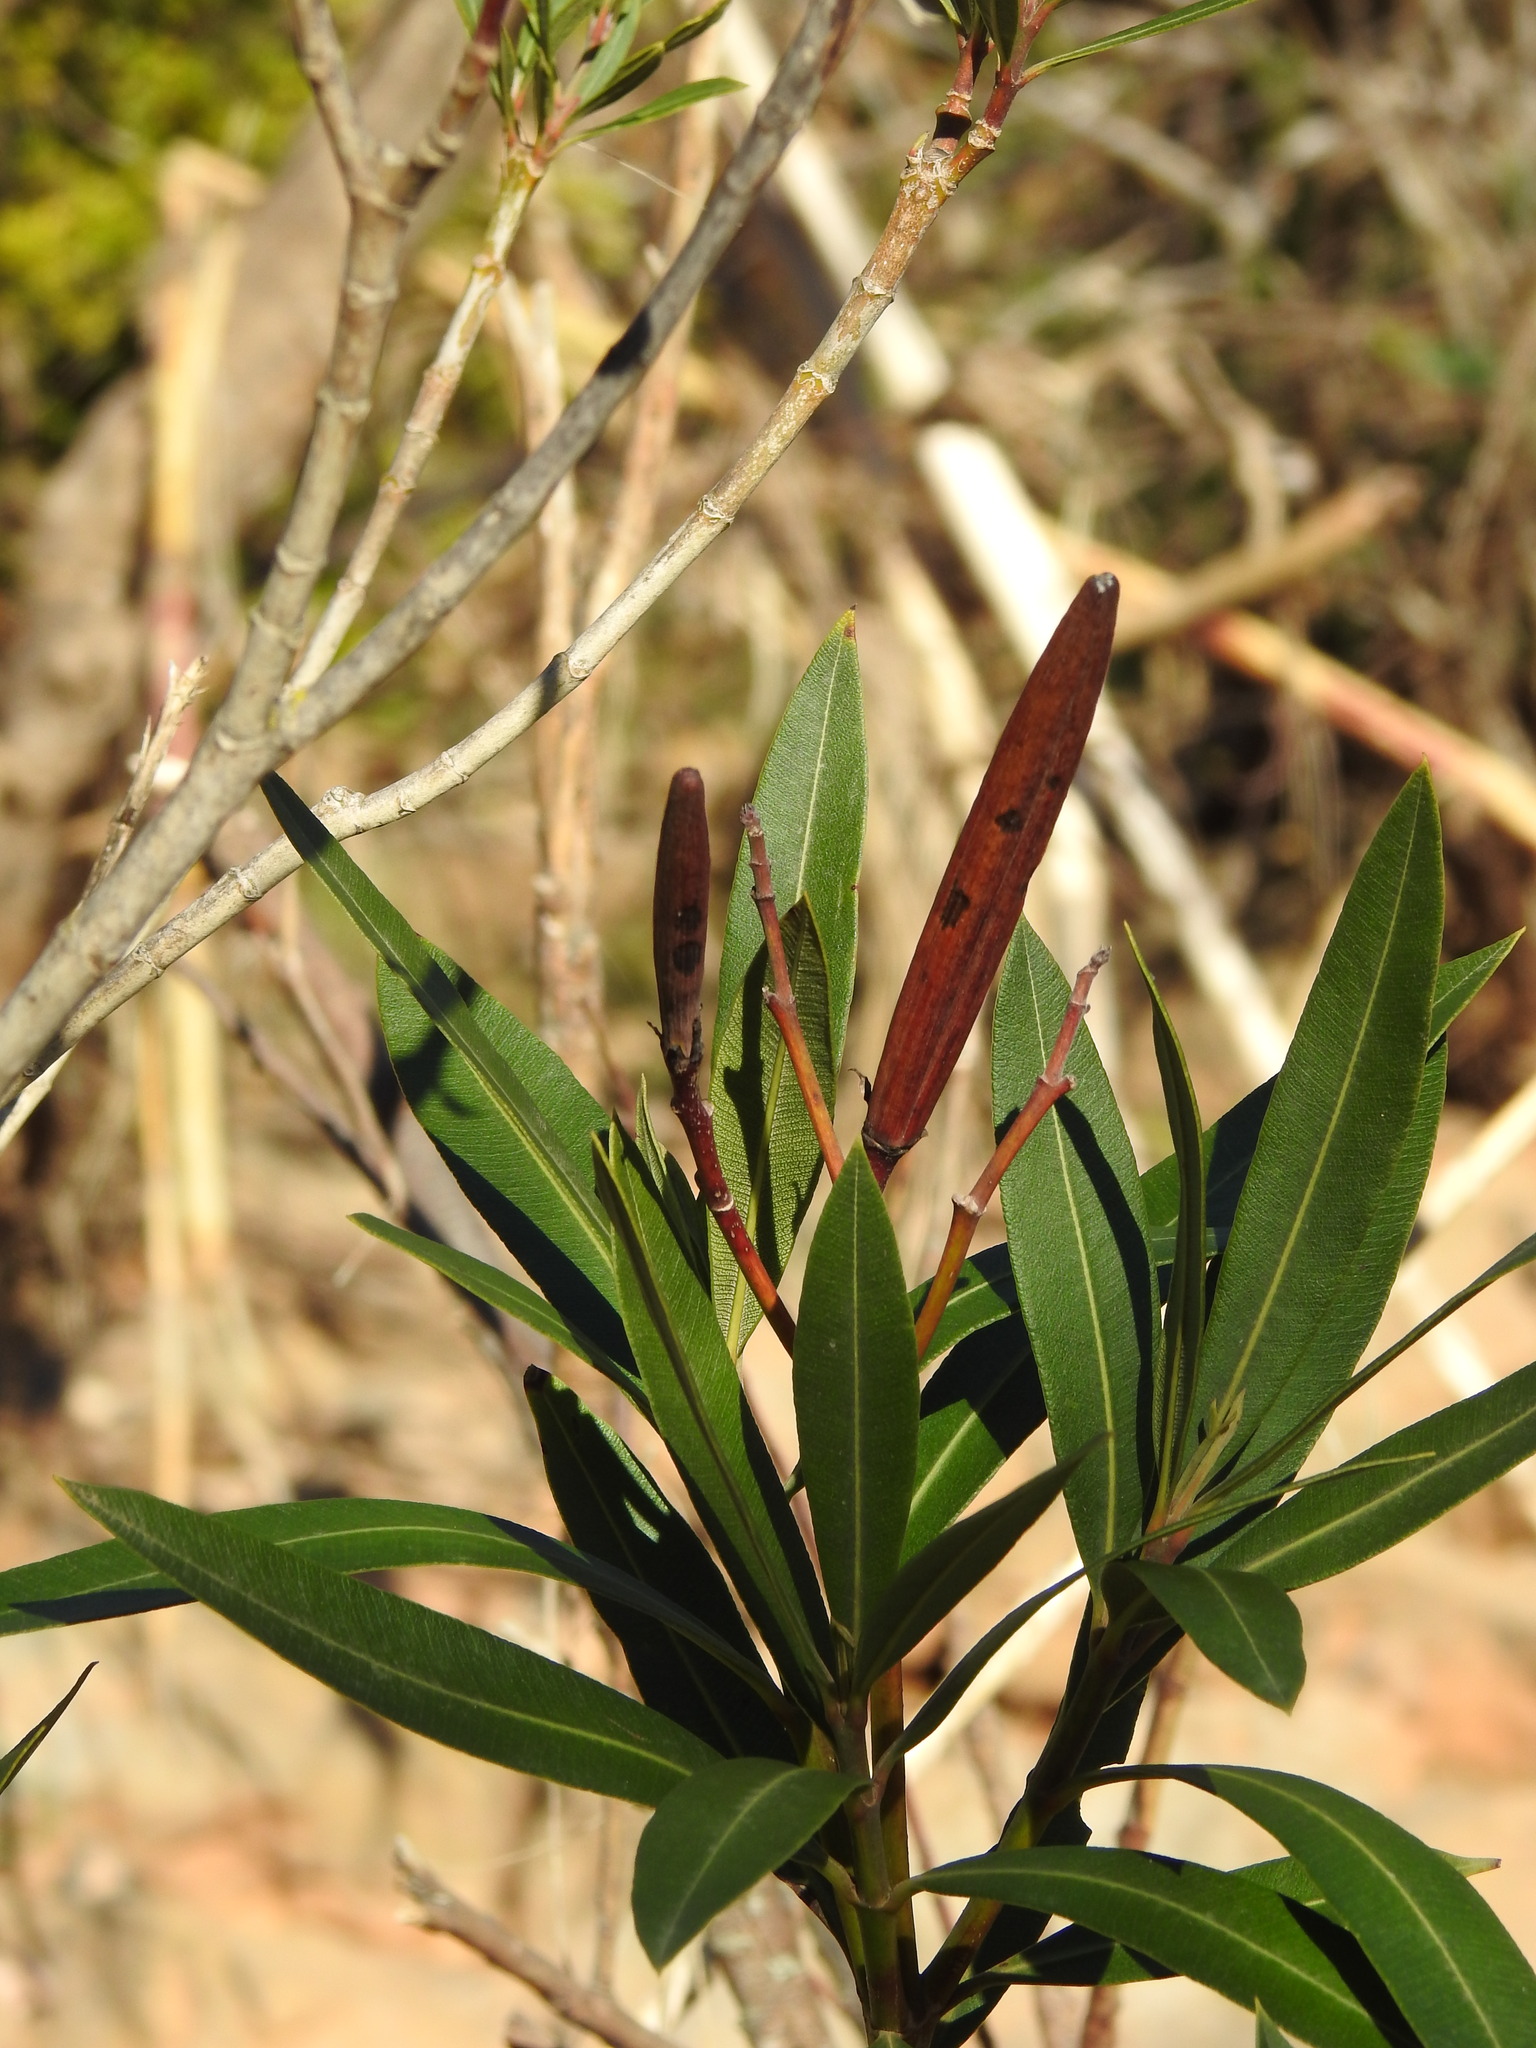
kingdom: Plantae
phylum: Tracheophyta
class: Magnoliopsida
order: Gentianales
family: Apocynaceae
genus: Nerium
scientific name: Nerium oleander
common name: Oleander
